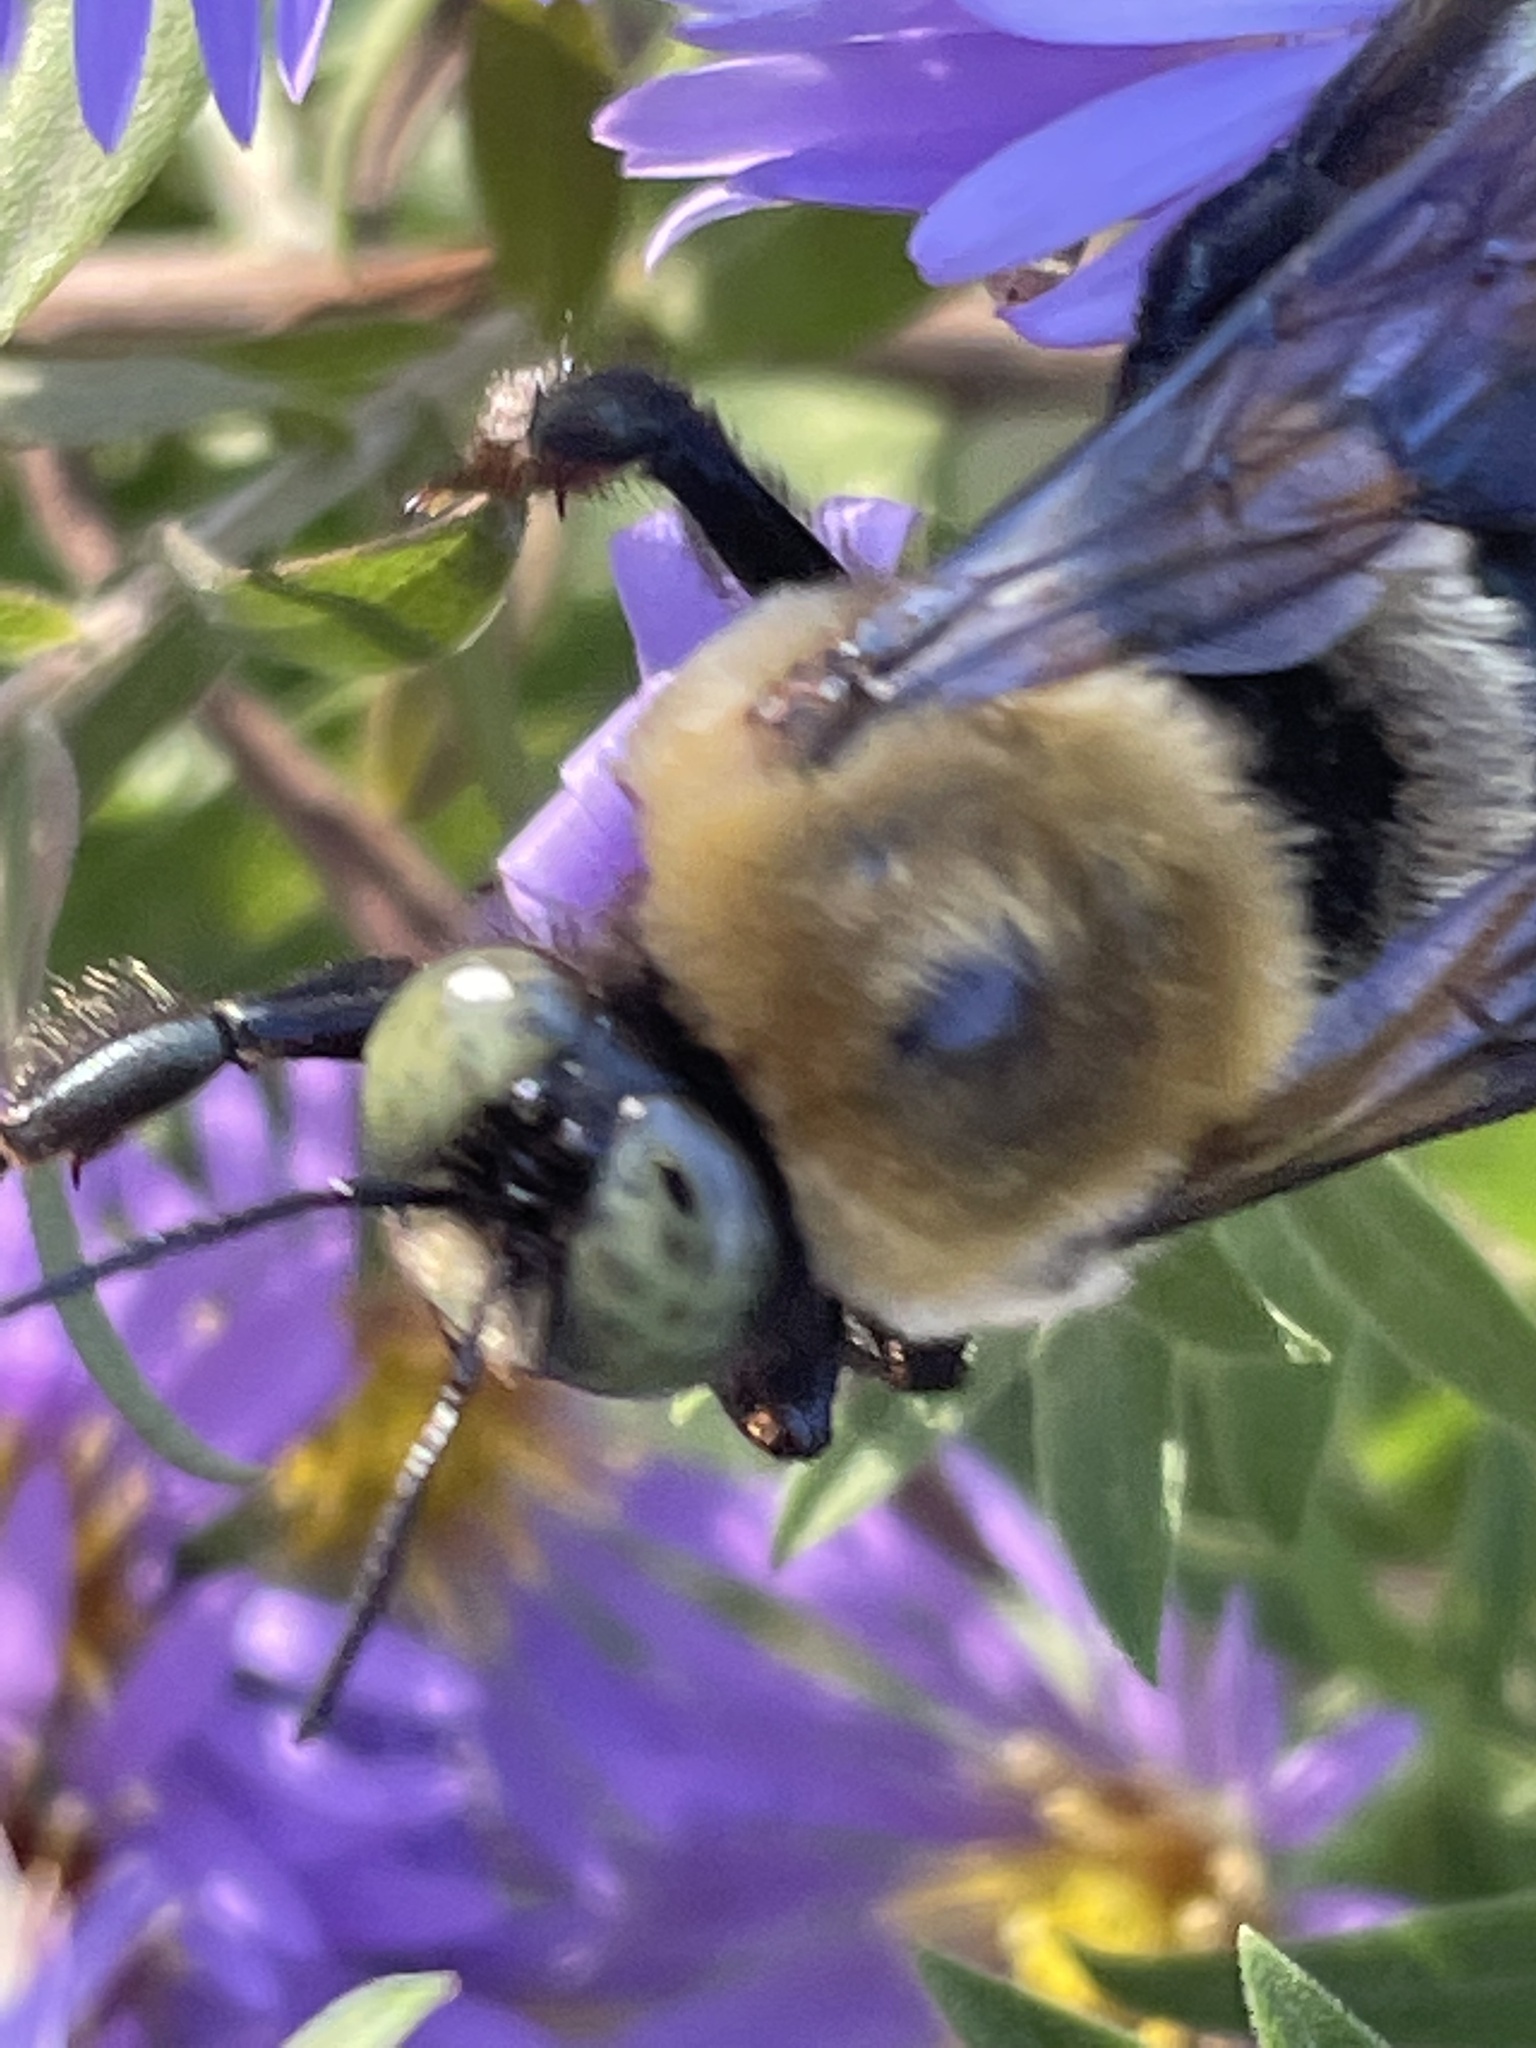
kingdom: Animalia
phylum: Arthropoda
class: Insecta
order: Hymenoptera
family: Apidae
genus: Xylocopa
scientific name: Xylocopa virginica
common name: Carpenter bee
